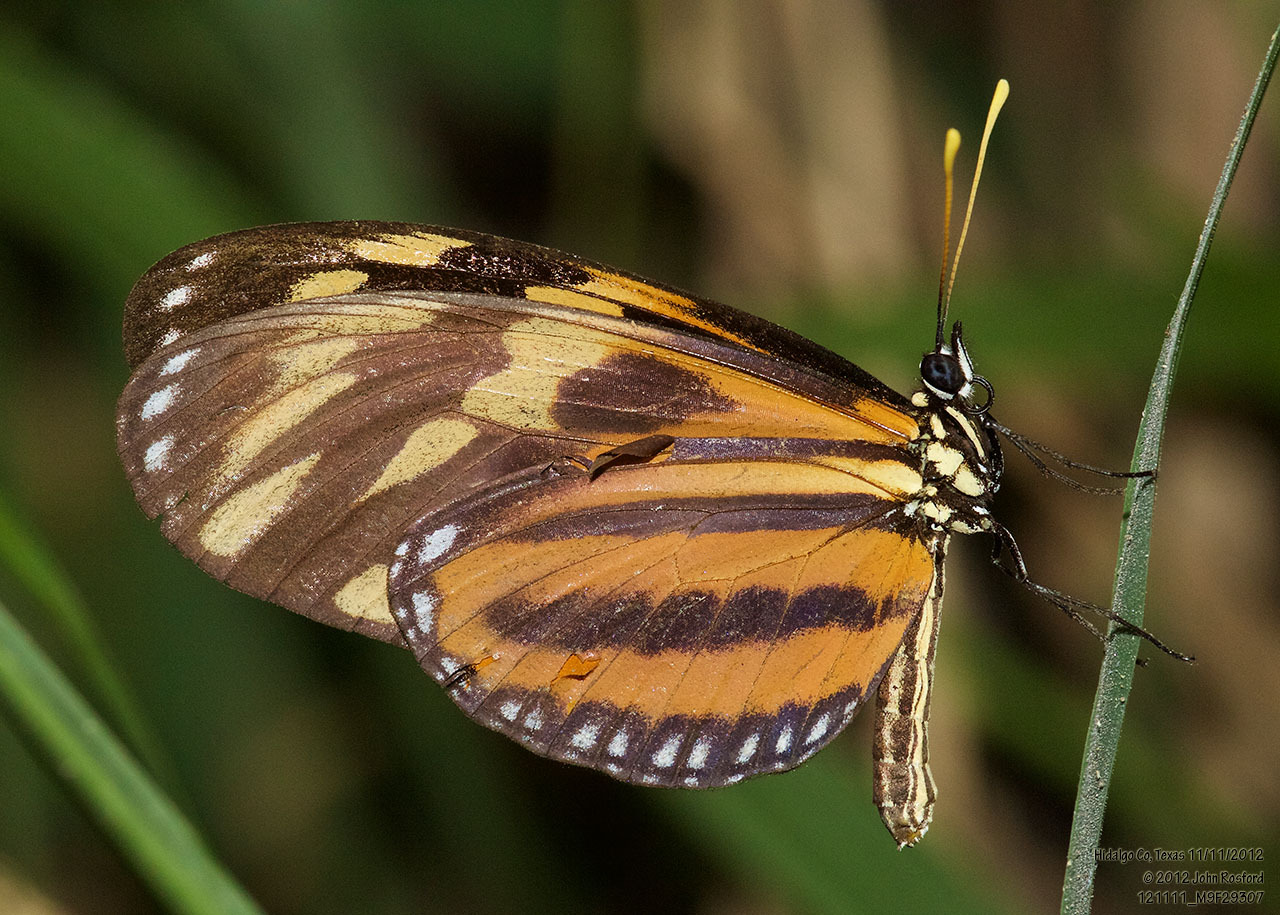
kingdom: Animalia
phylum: Arthropoda
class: Insecta
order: Lepidoptera
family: Nymphalidae
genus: Eueides
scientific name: Eueides isabella
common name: Isabella's longwing
